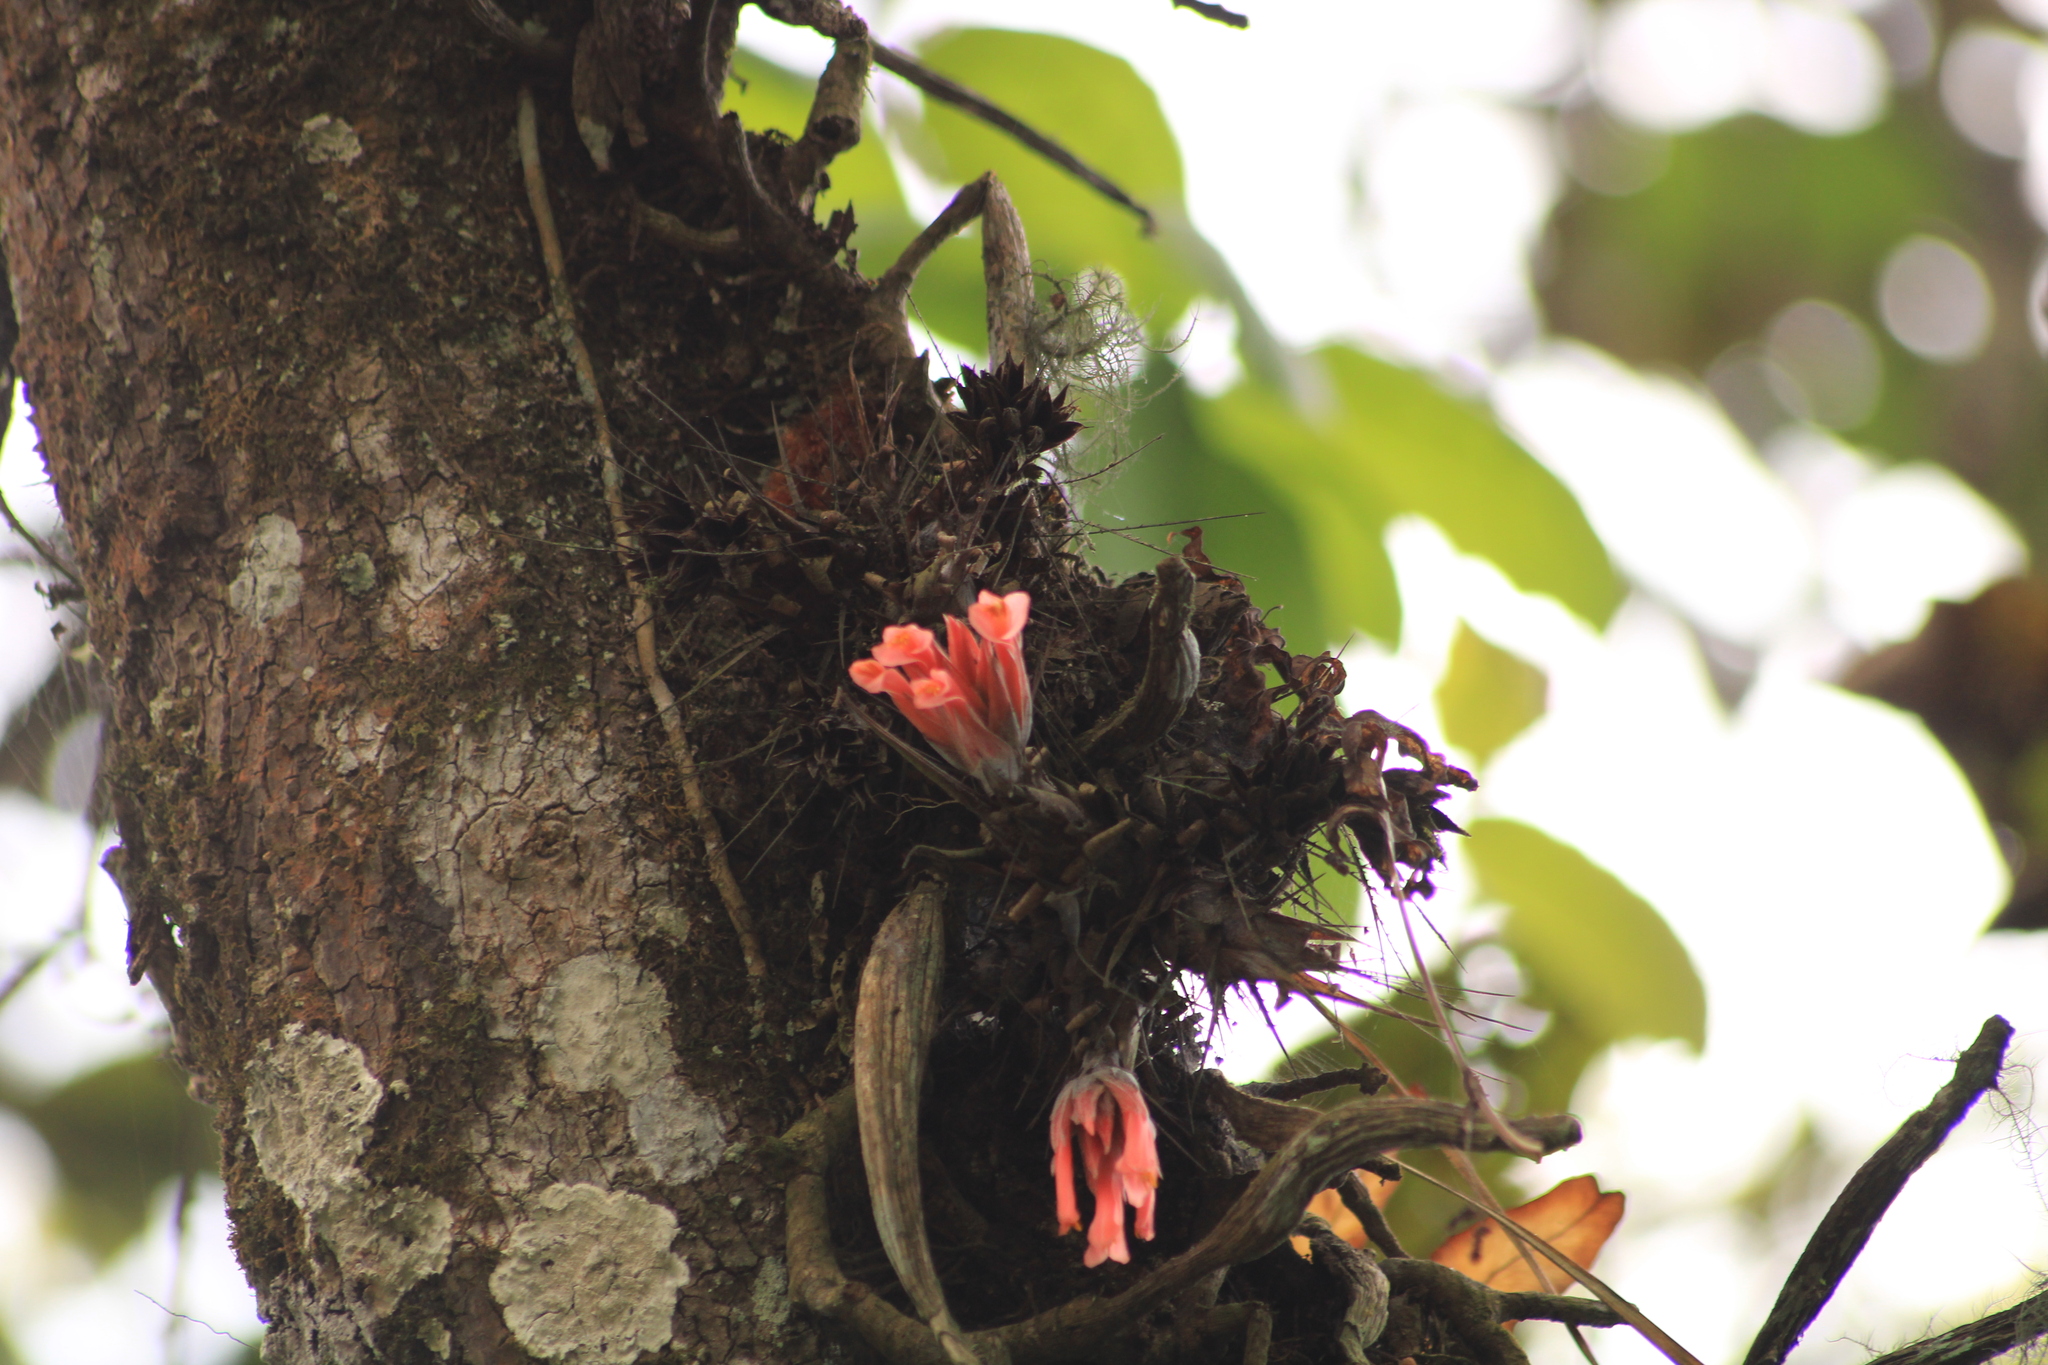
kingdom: Plantae
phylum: Tracheophyta
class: Liliopsida
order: Poales
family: Bromeliaceae
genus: Pitcairnia
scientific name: Pitcairnia heterophylla
